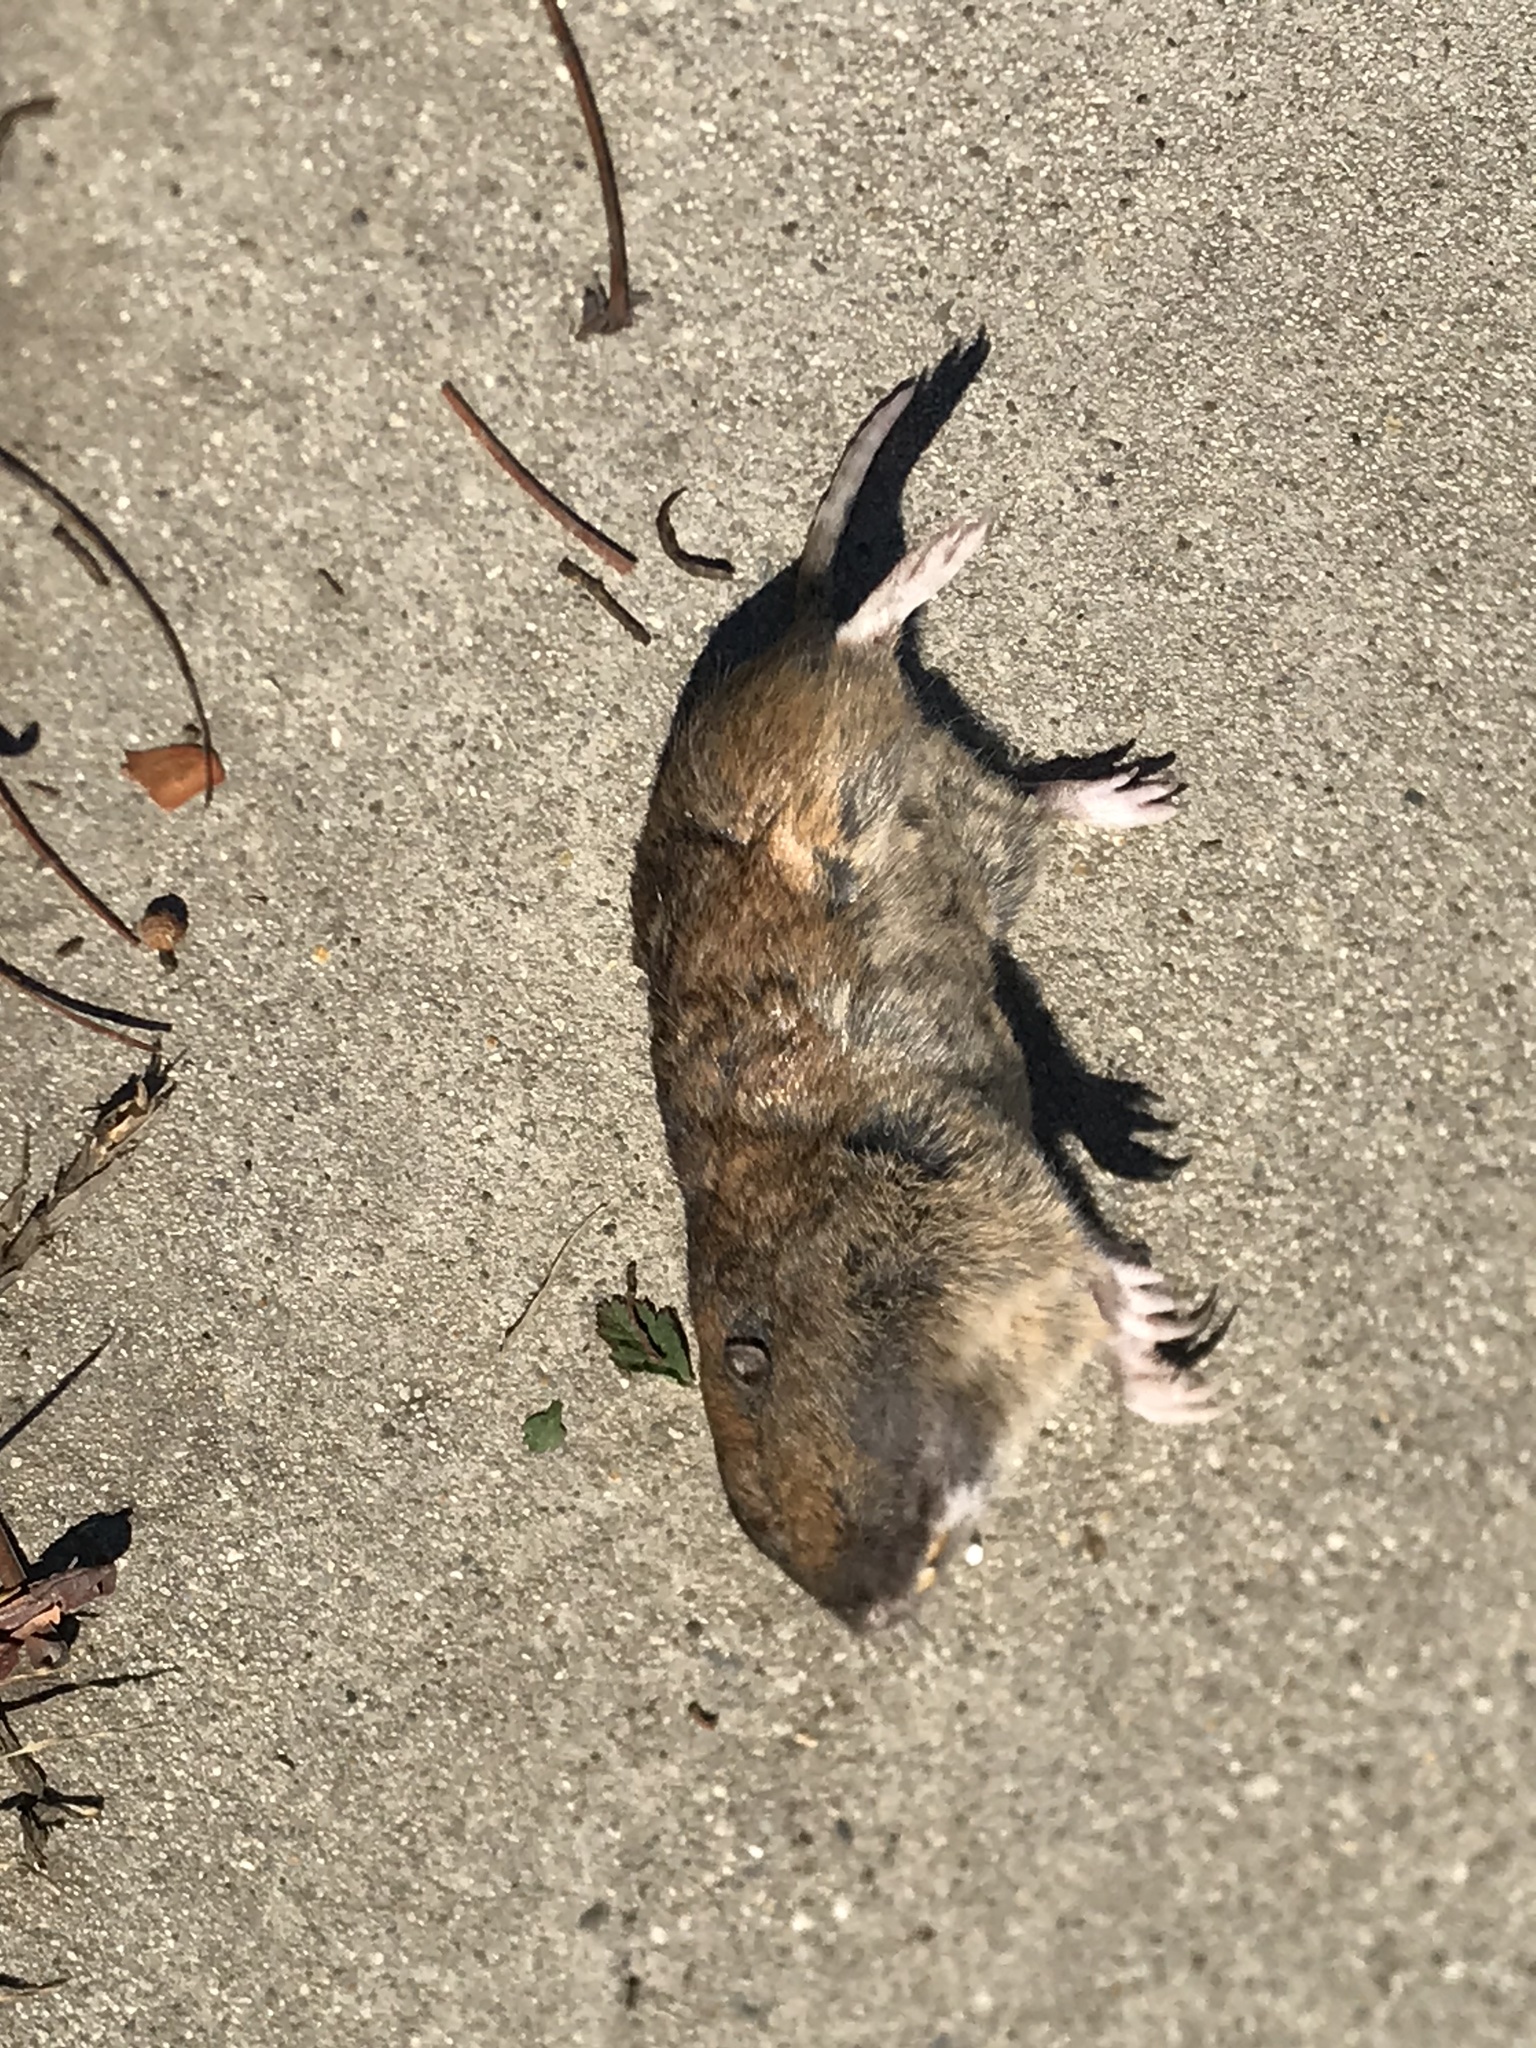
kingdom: Animalia
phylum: Chordata
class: Mammalia
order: Rodentia
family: Geomyidae
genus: Thomomys
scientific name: Thomomys bottae
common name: Botta's pocket gopher
